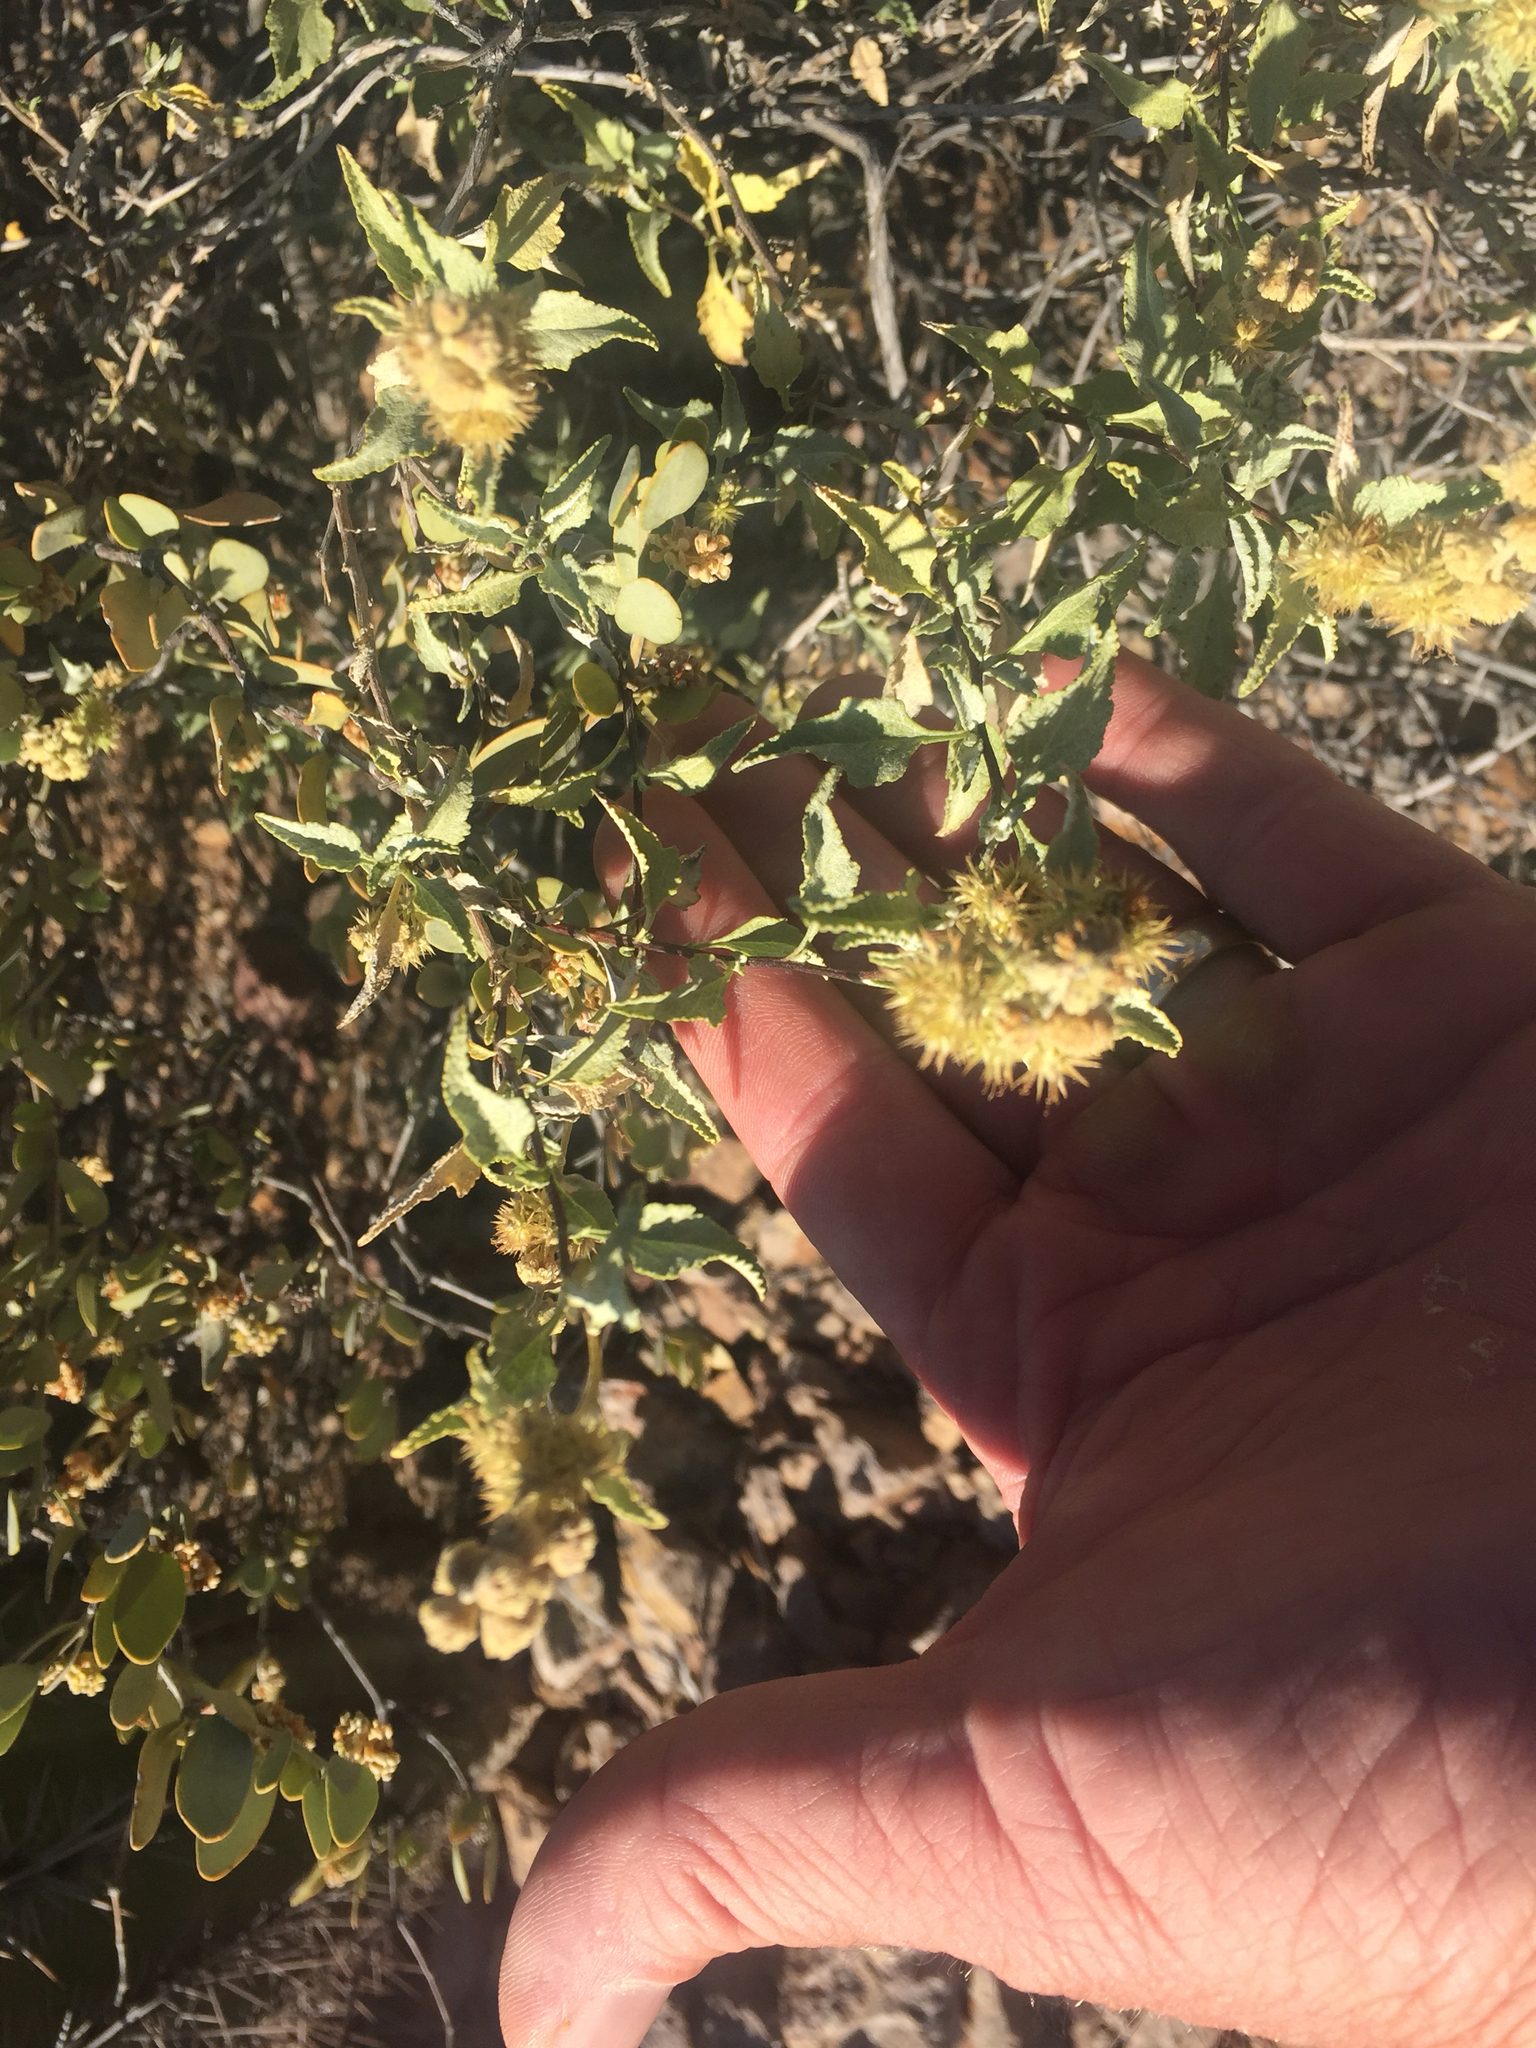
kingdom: Plantae
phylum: Tracheophyta
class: Magnoliopsida
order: Caryophyllales
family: Simmondsiaceae
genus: Simmondsia
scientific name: Simmondsia chinensis
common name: Jojoba
